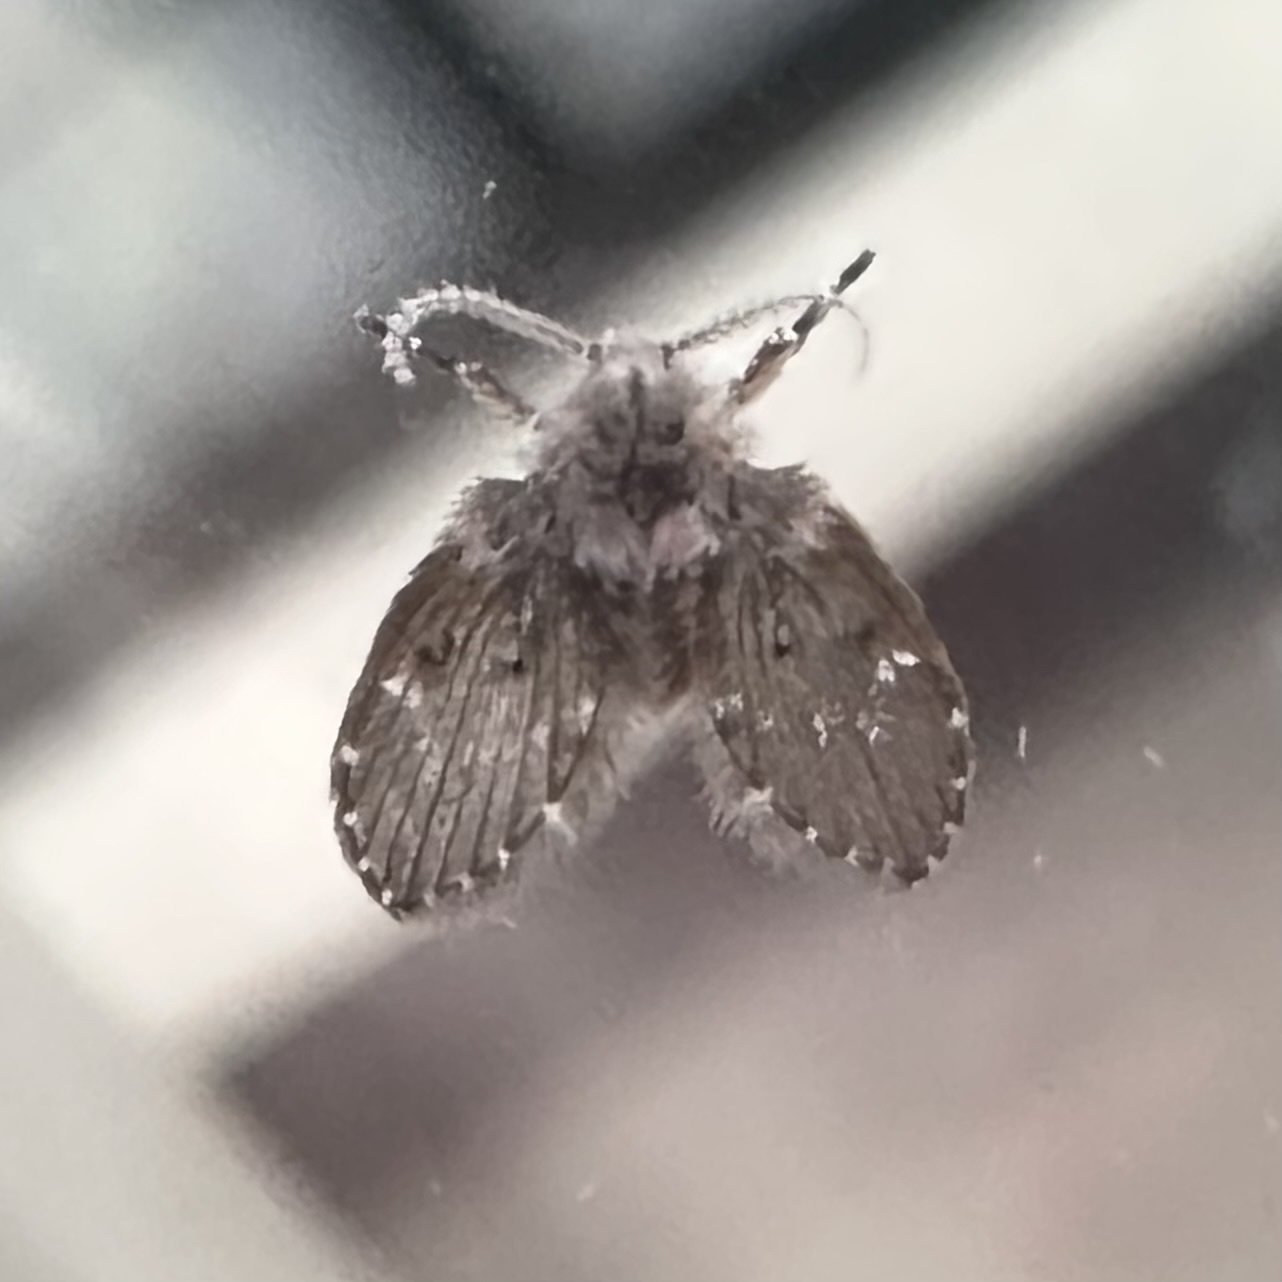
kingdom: Animalia
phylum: Arthropoda
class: Insecta
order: Diptera
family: Psychodidae
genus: Clogmia
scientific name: Clogmia albipunctatus
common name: White-spotted moth fly
